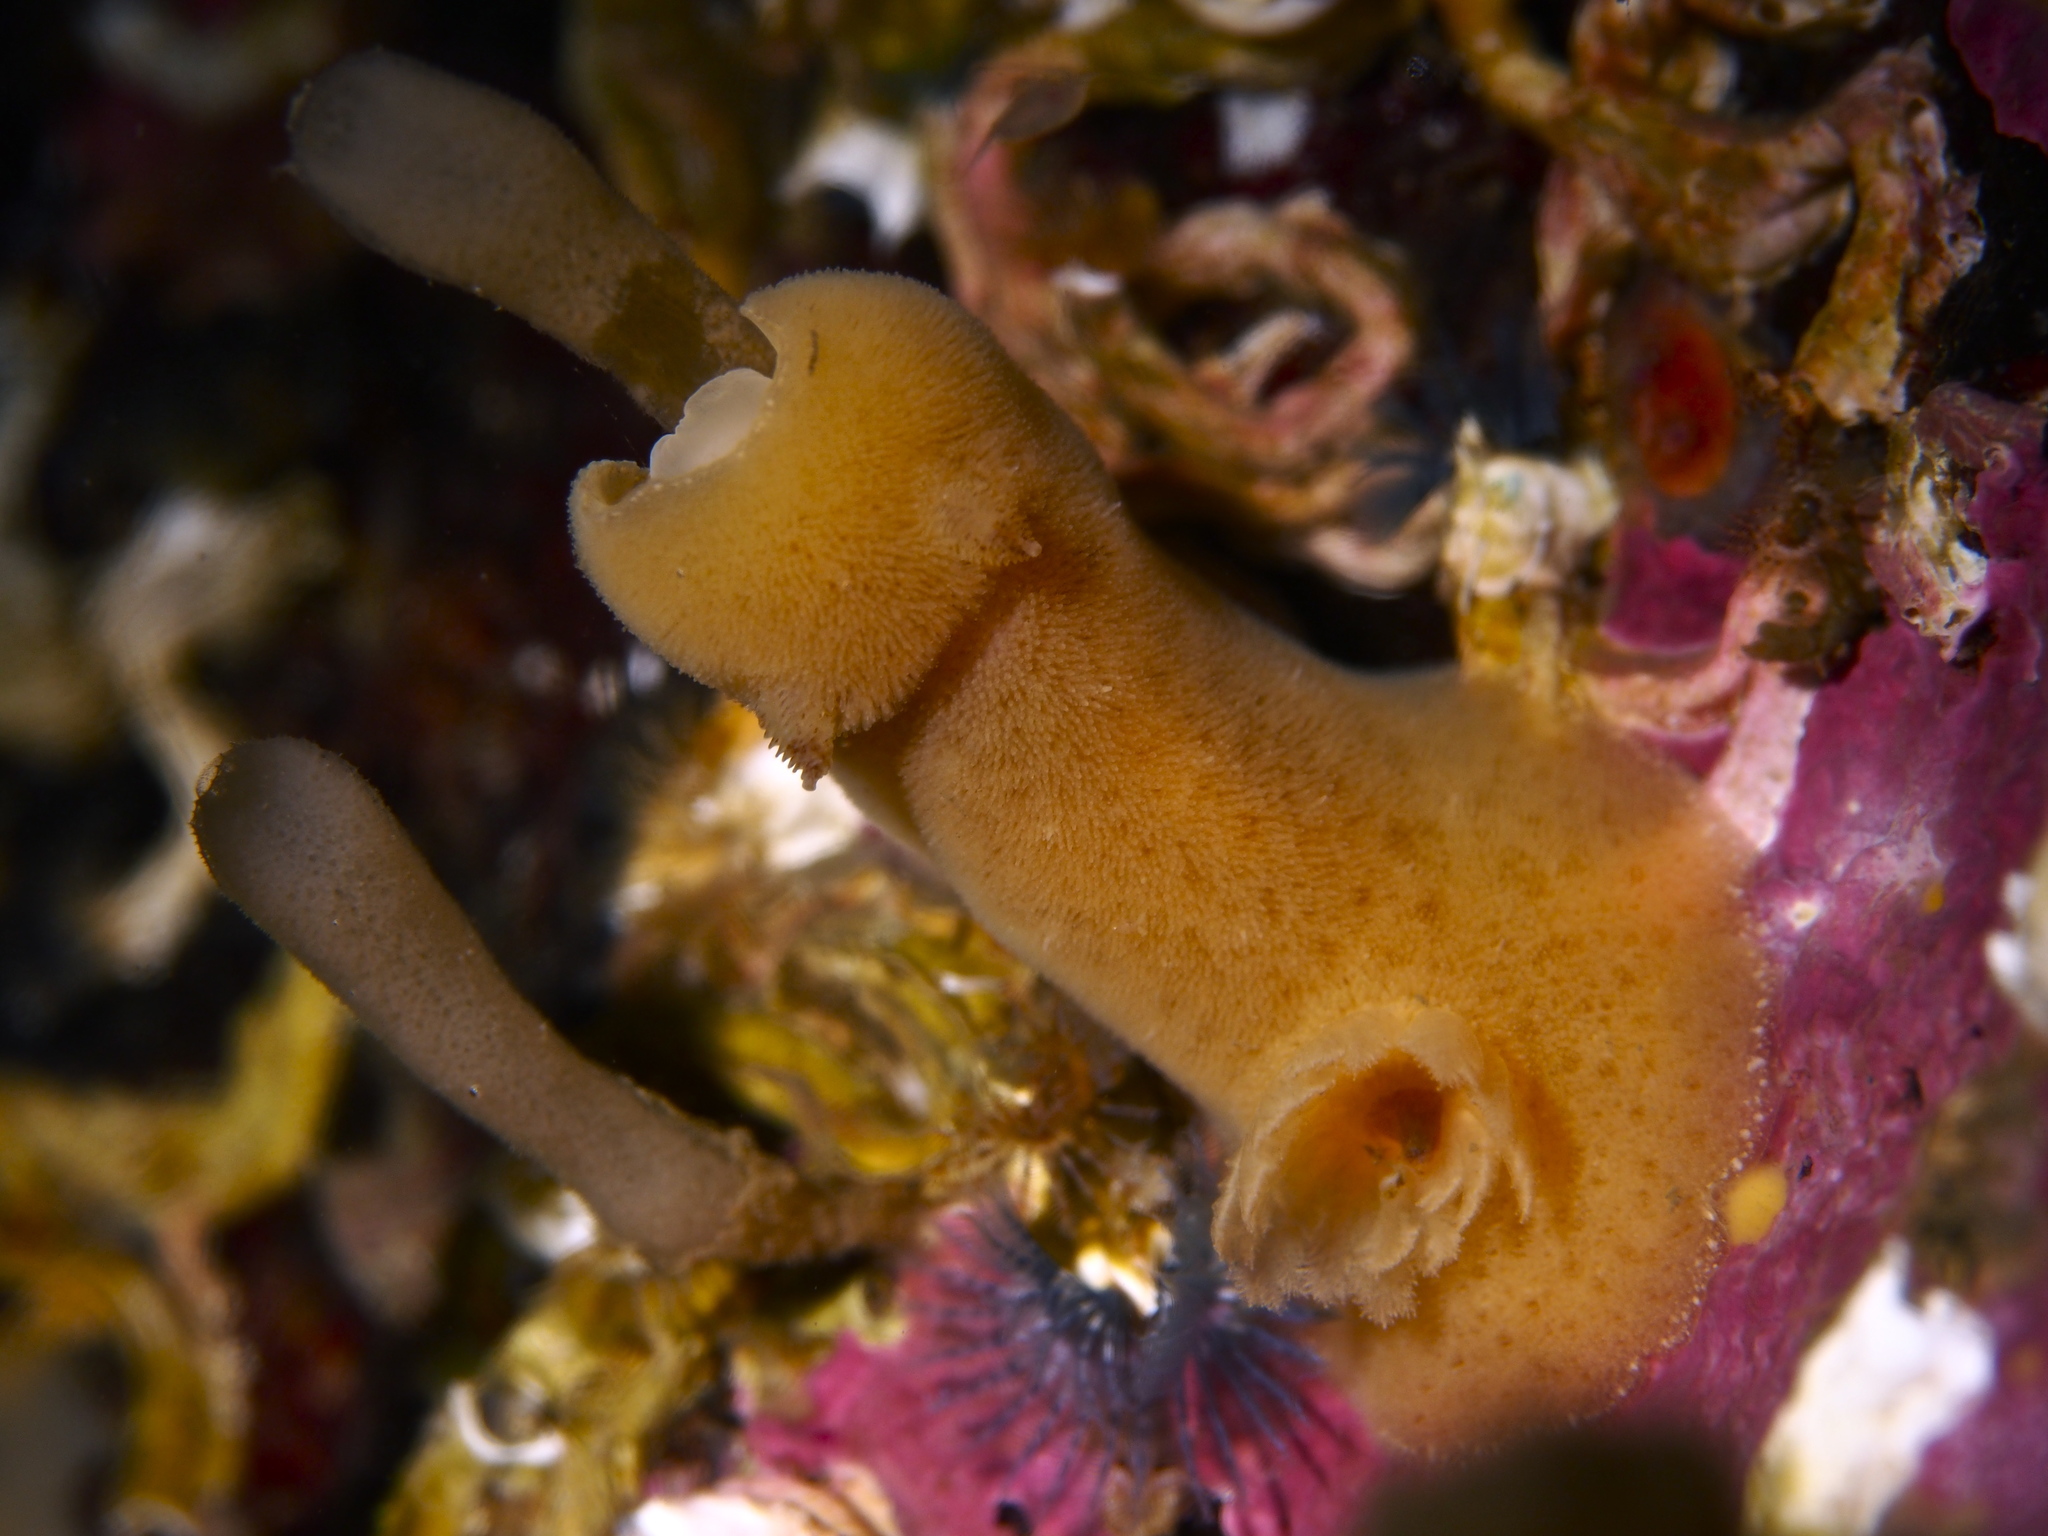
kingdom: Animalia
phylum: Mollusca
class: Gastropoda
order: Nudibranchia
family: Discodorididae
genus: Jorunna
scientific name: Jorunna tomentosa
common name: Grey sea slug
